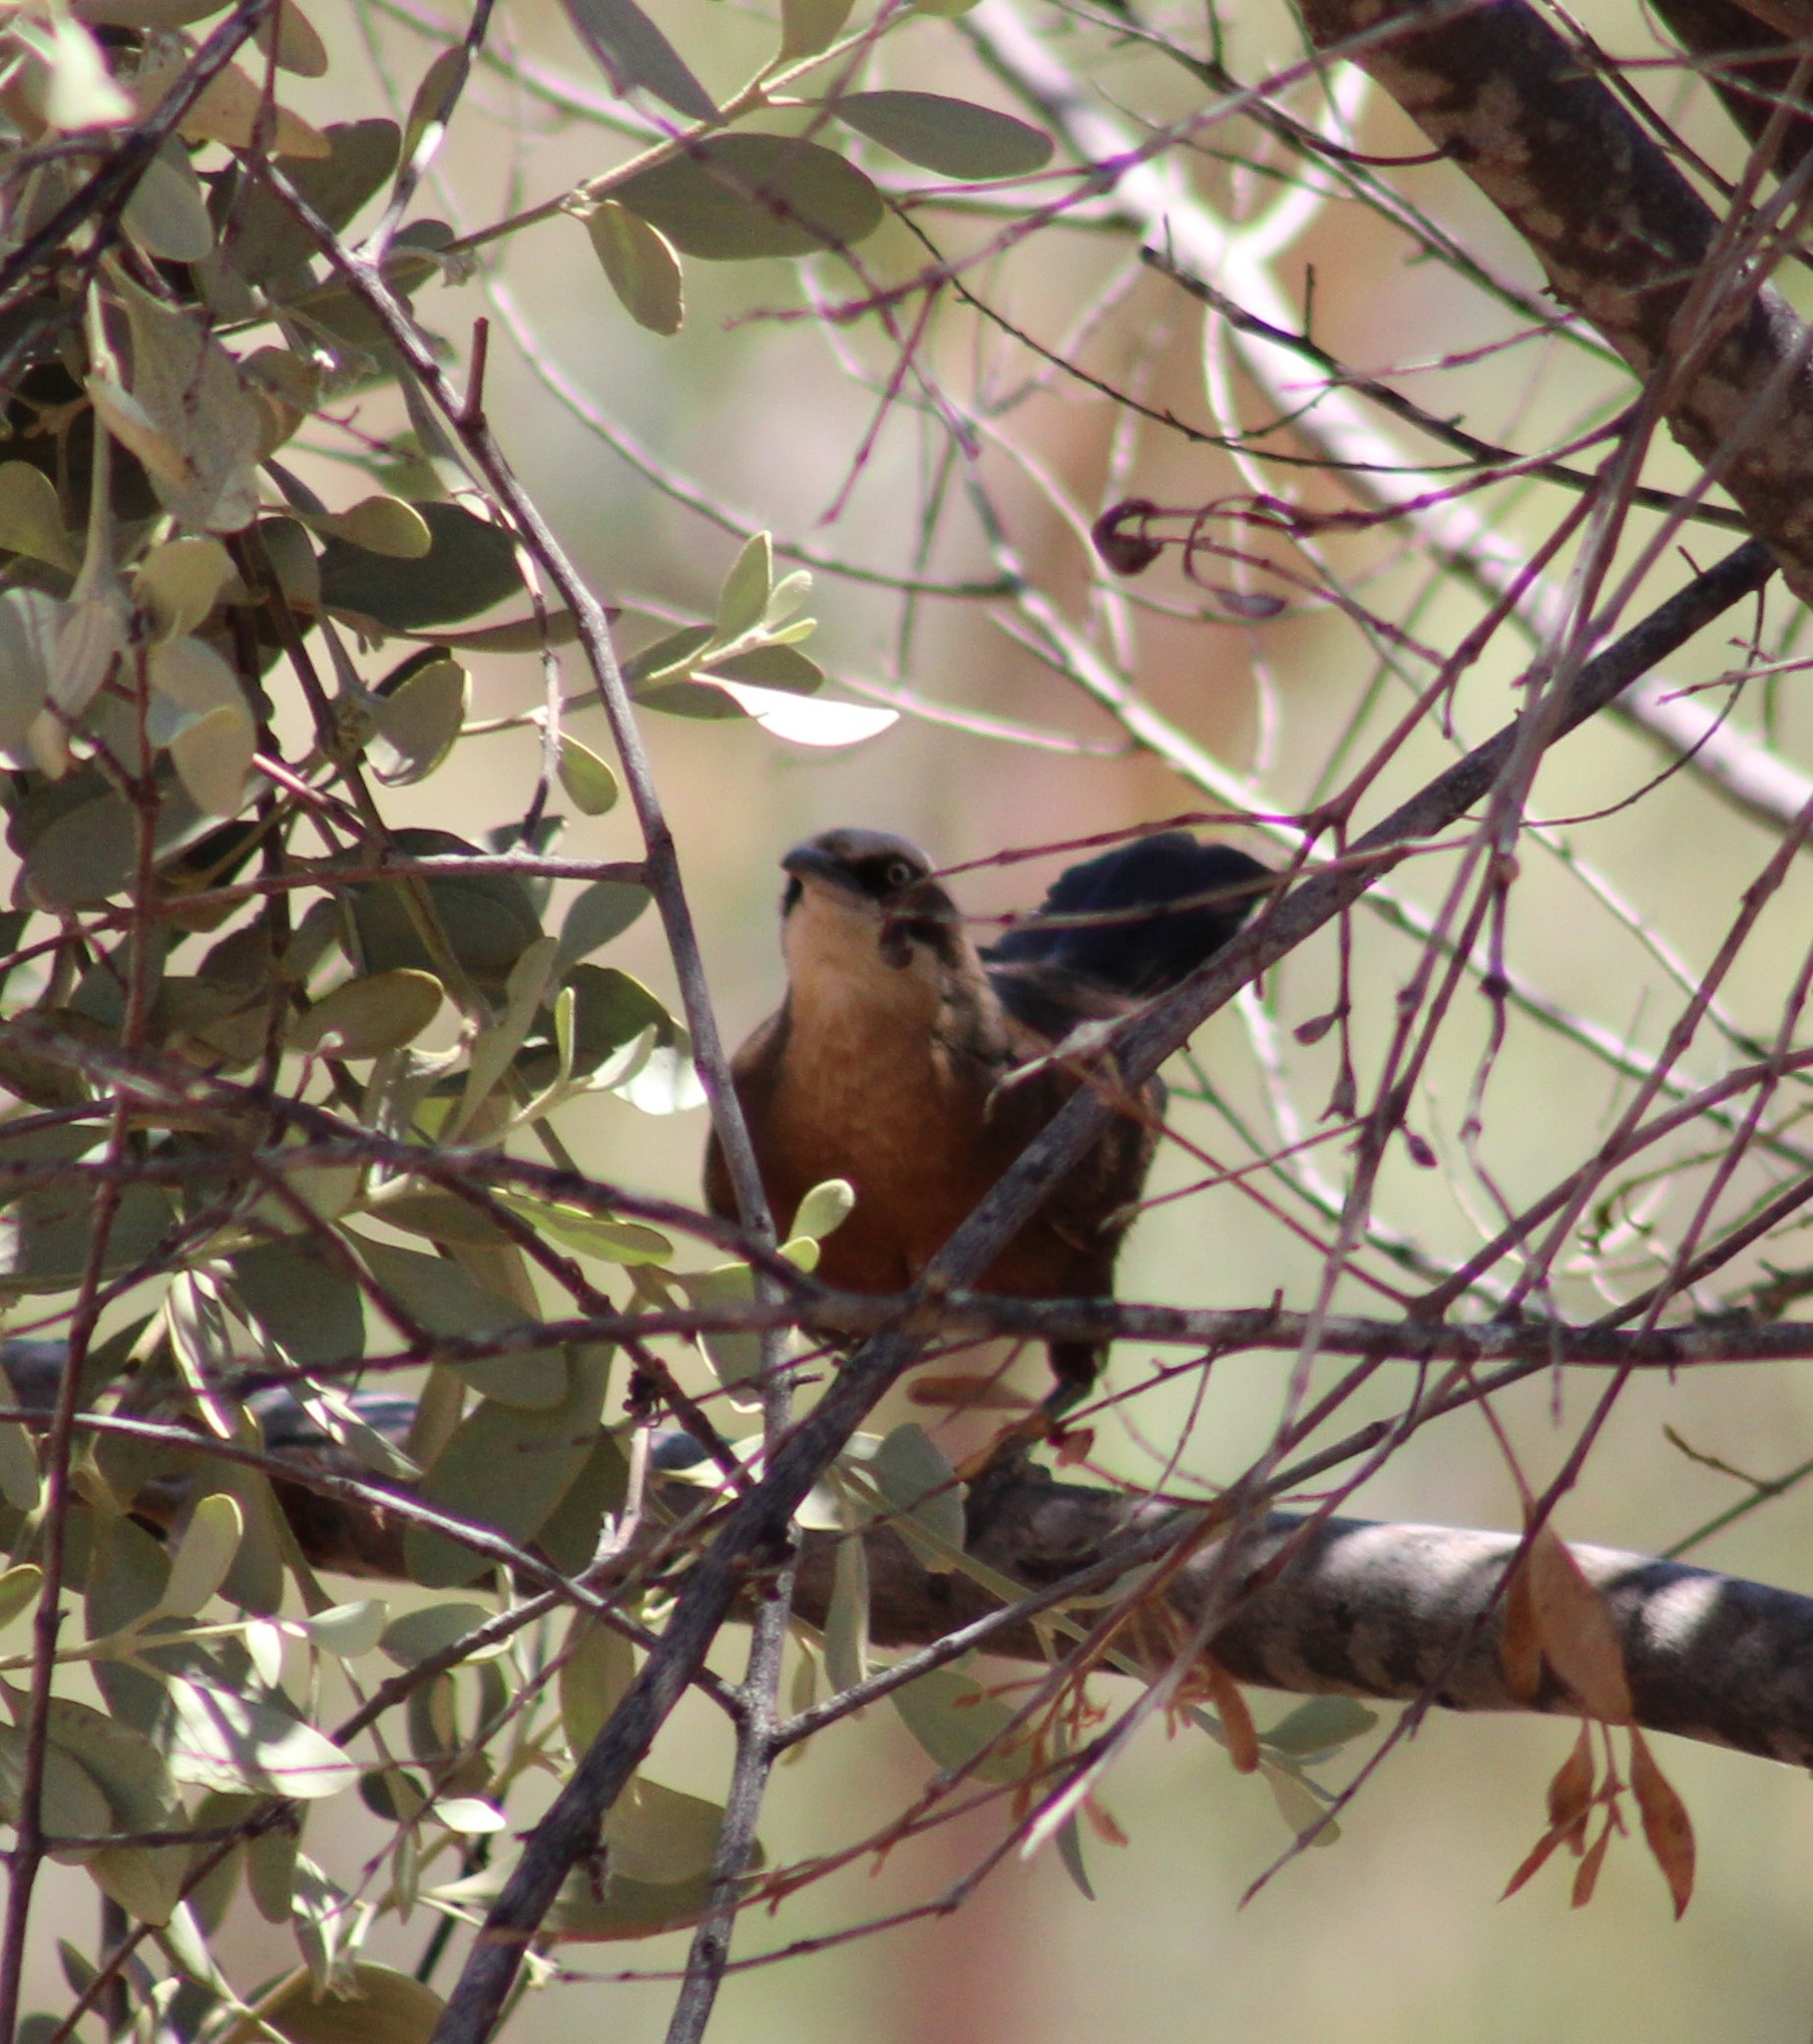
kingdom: Animalia
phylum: Chordata
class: Aves
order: Passeriformes
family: Pomatostomidae
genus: Pomatostomus
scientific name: Pomatostomus temporalis
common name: Grey-crowned babbler
